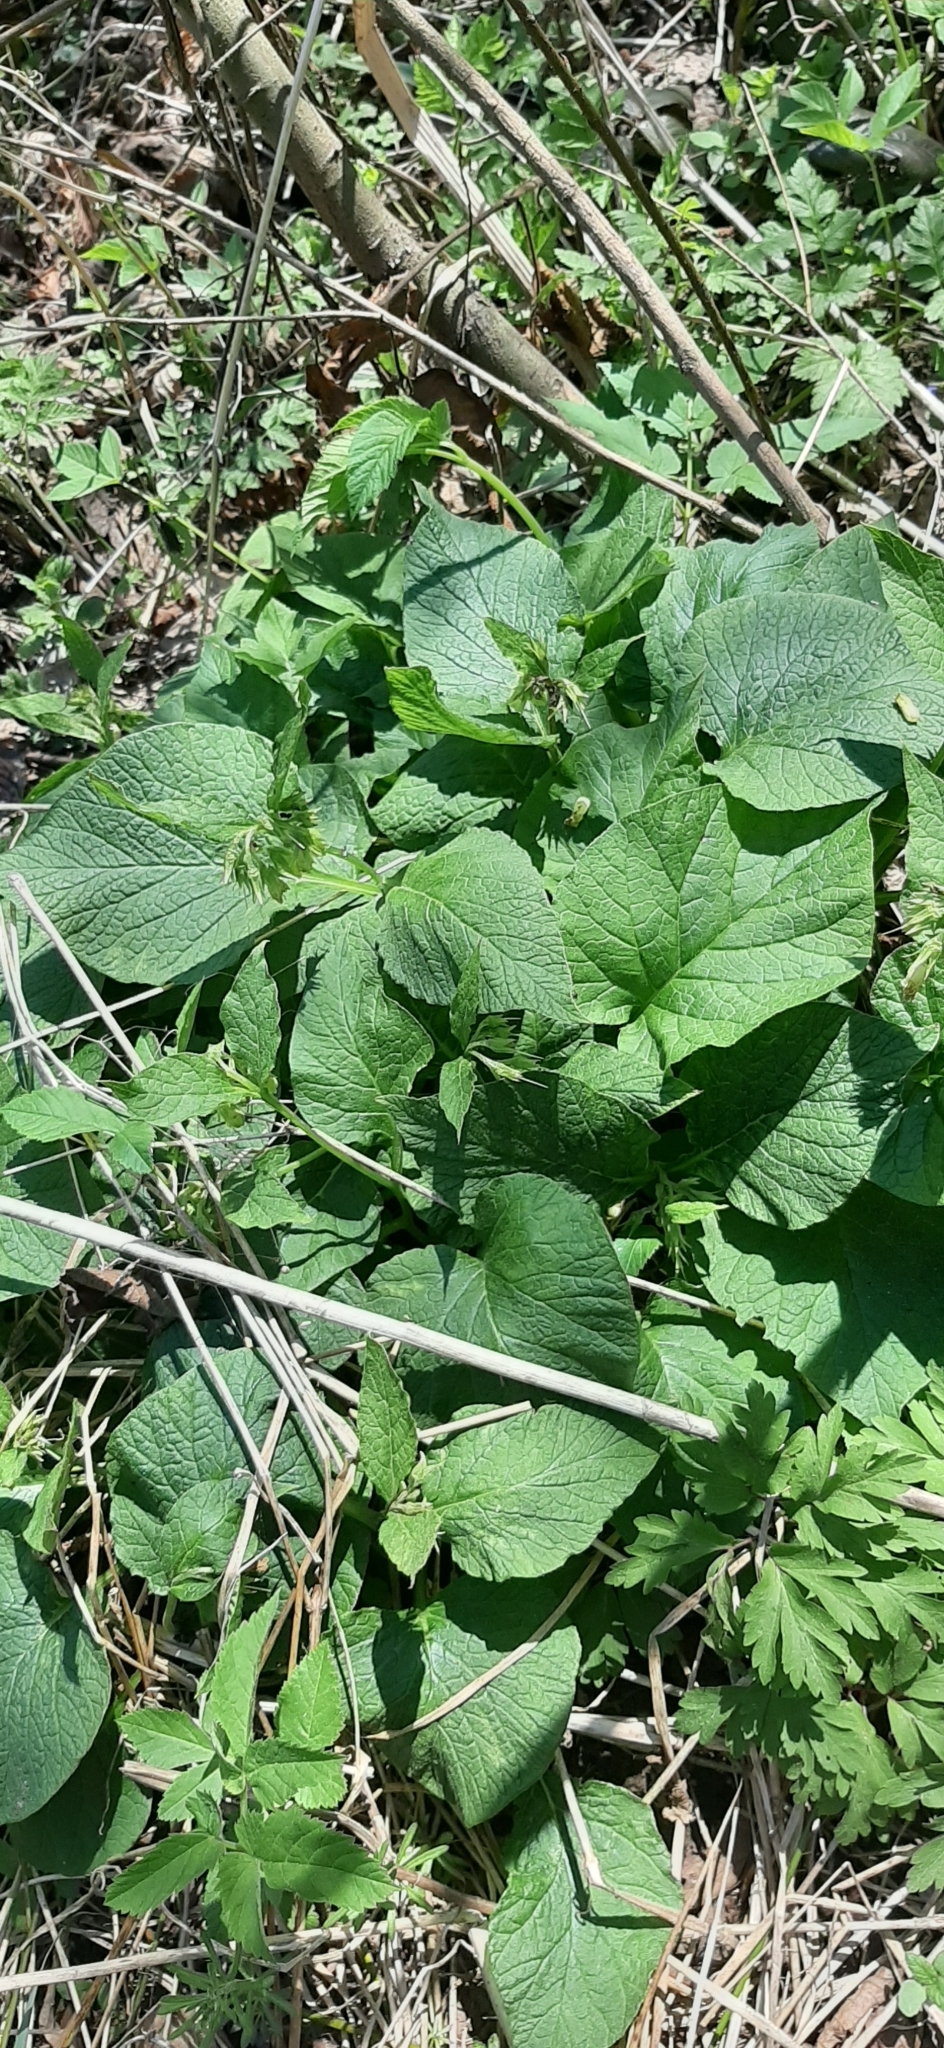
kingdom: Plantae
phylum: Tracheophyta
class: Magnoliopsida
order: Boraginales
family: Boraginaceae
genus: Symphytum
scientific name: Symphytum cordatum
